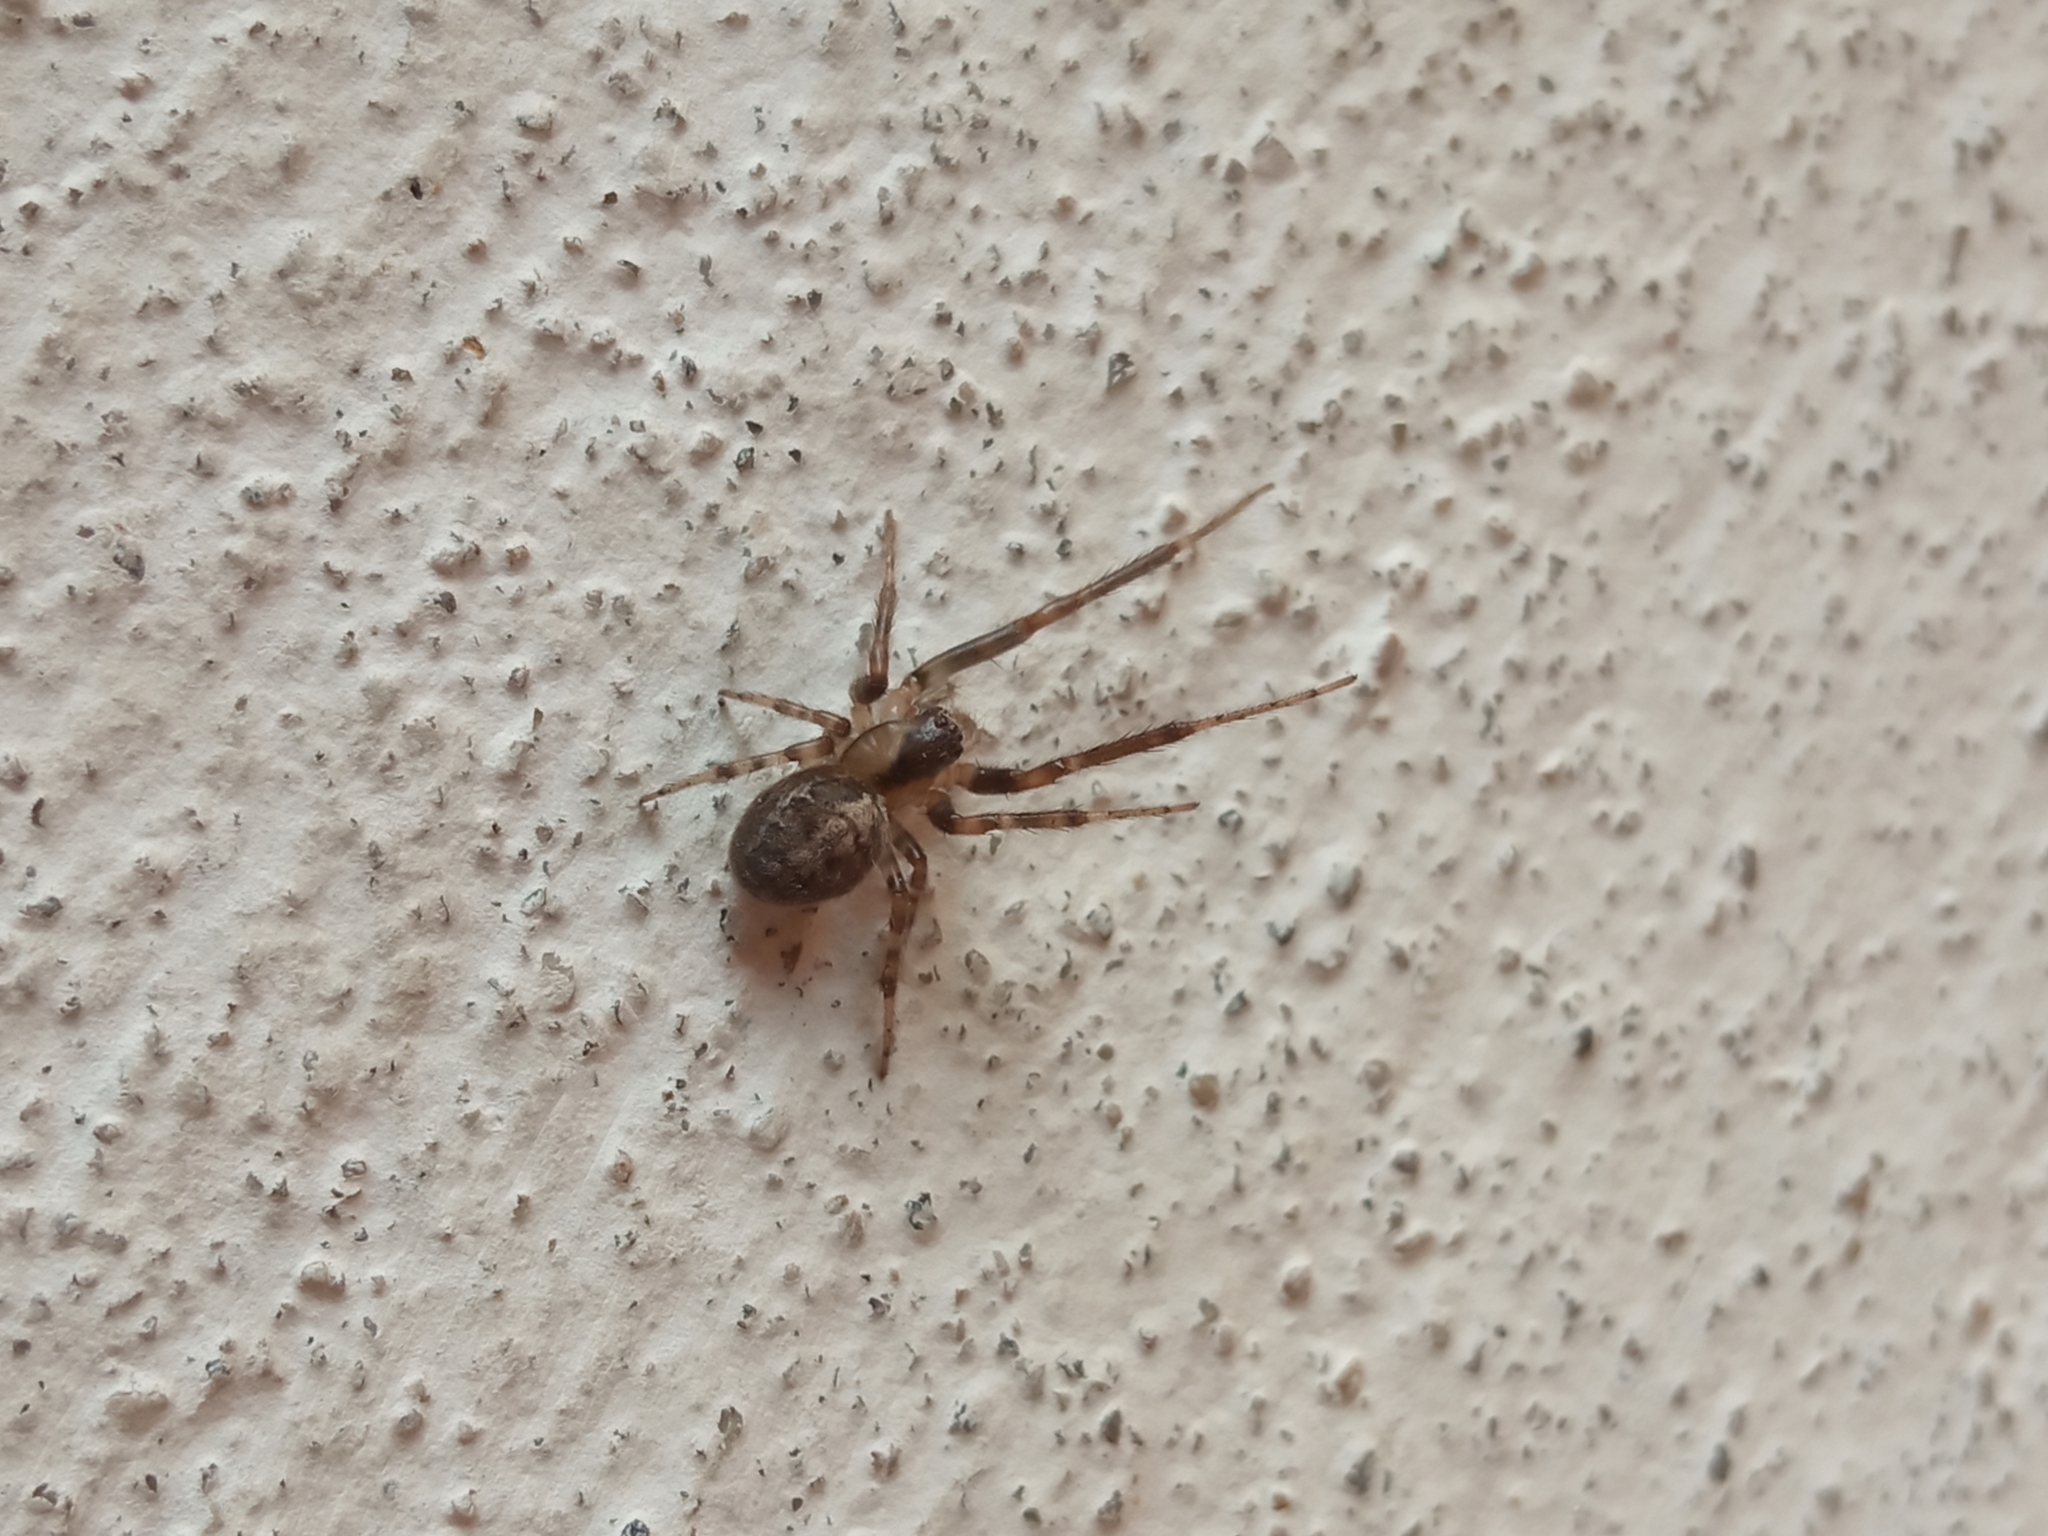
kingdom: Animalia
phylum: Arthropoda
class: Arachnida
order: Araneae
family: Araneidae
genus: Zygiella
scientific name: Zygiella x-notata
